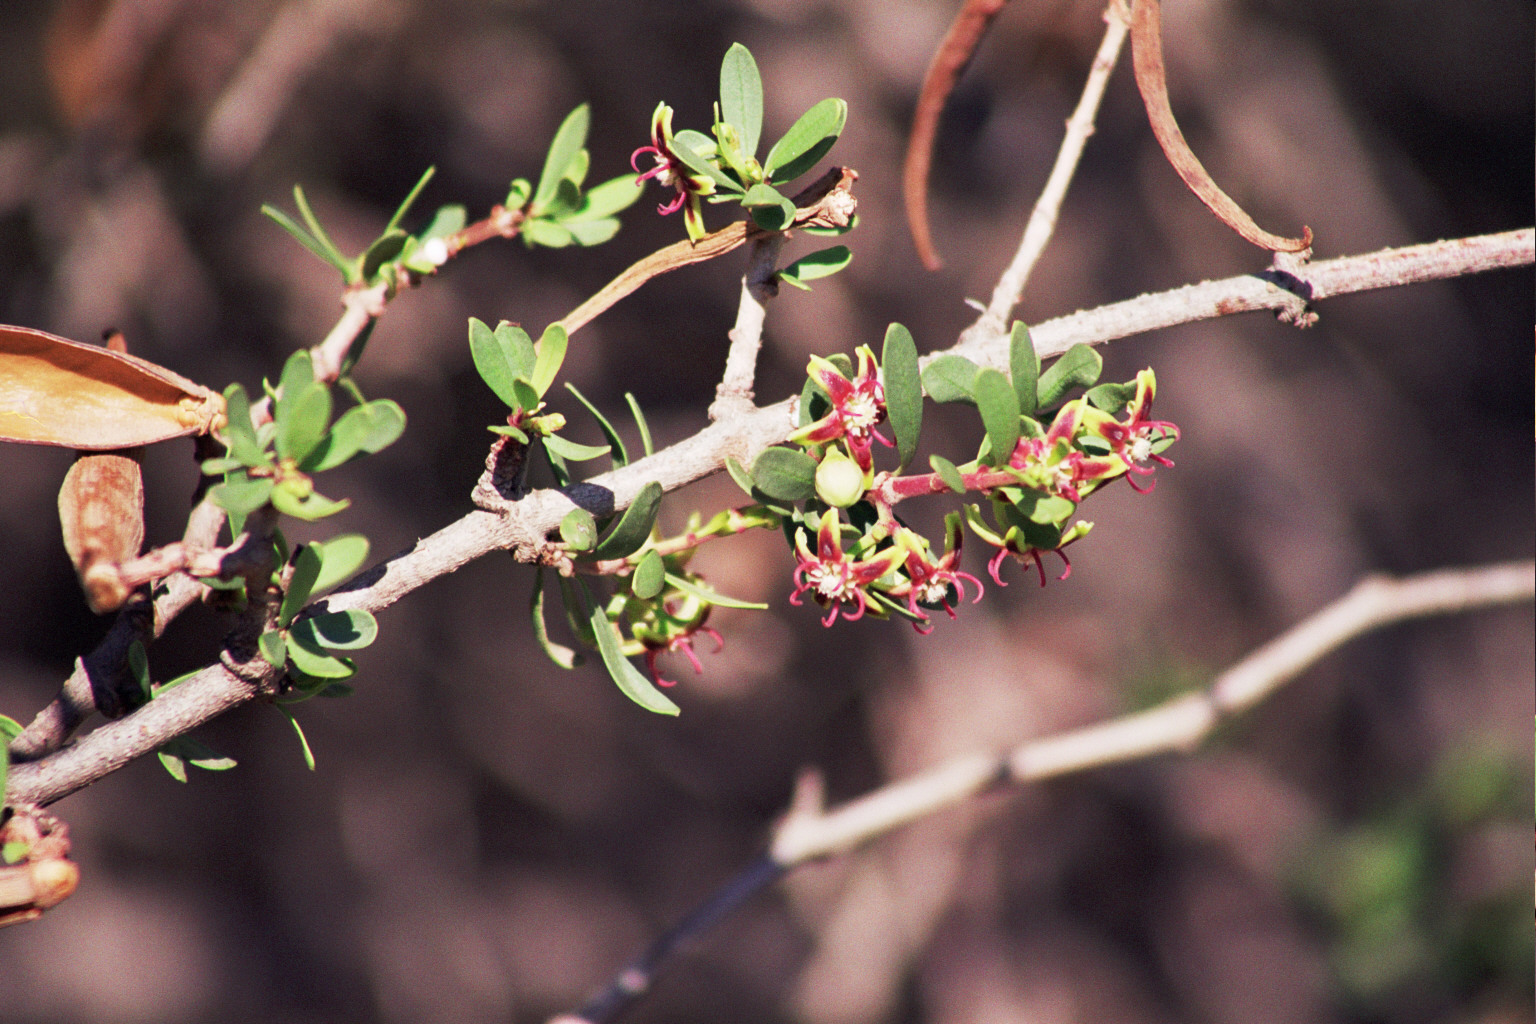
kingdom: Plantae
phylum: Tracheophyta
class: Magnoliopsida
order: Gentianales
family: Apocynaceae
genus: Periploca
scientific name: Periploca laevigata
